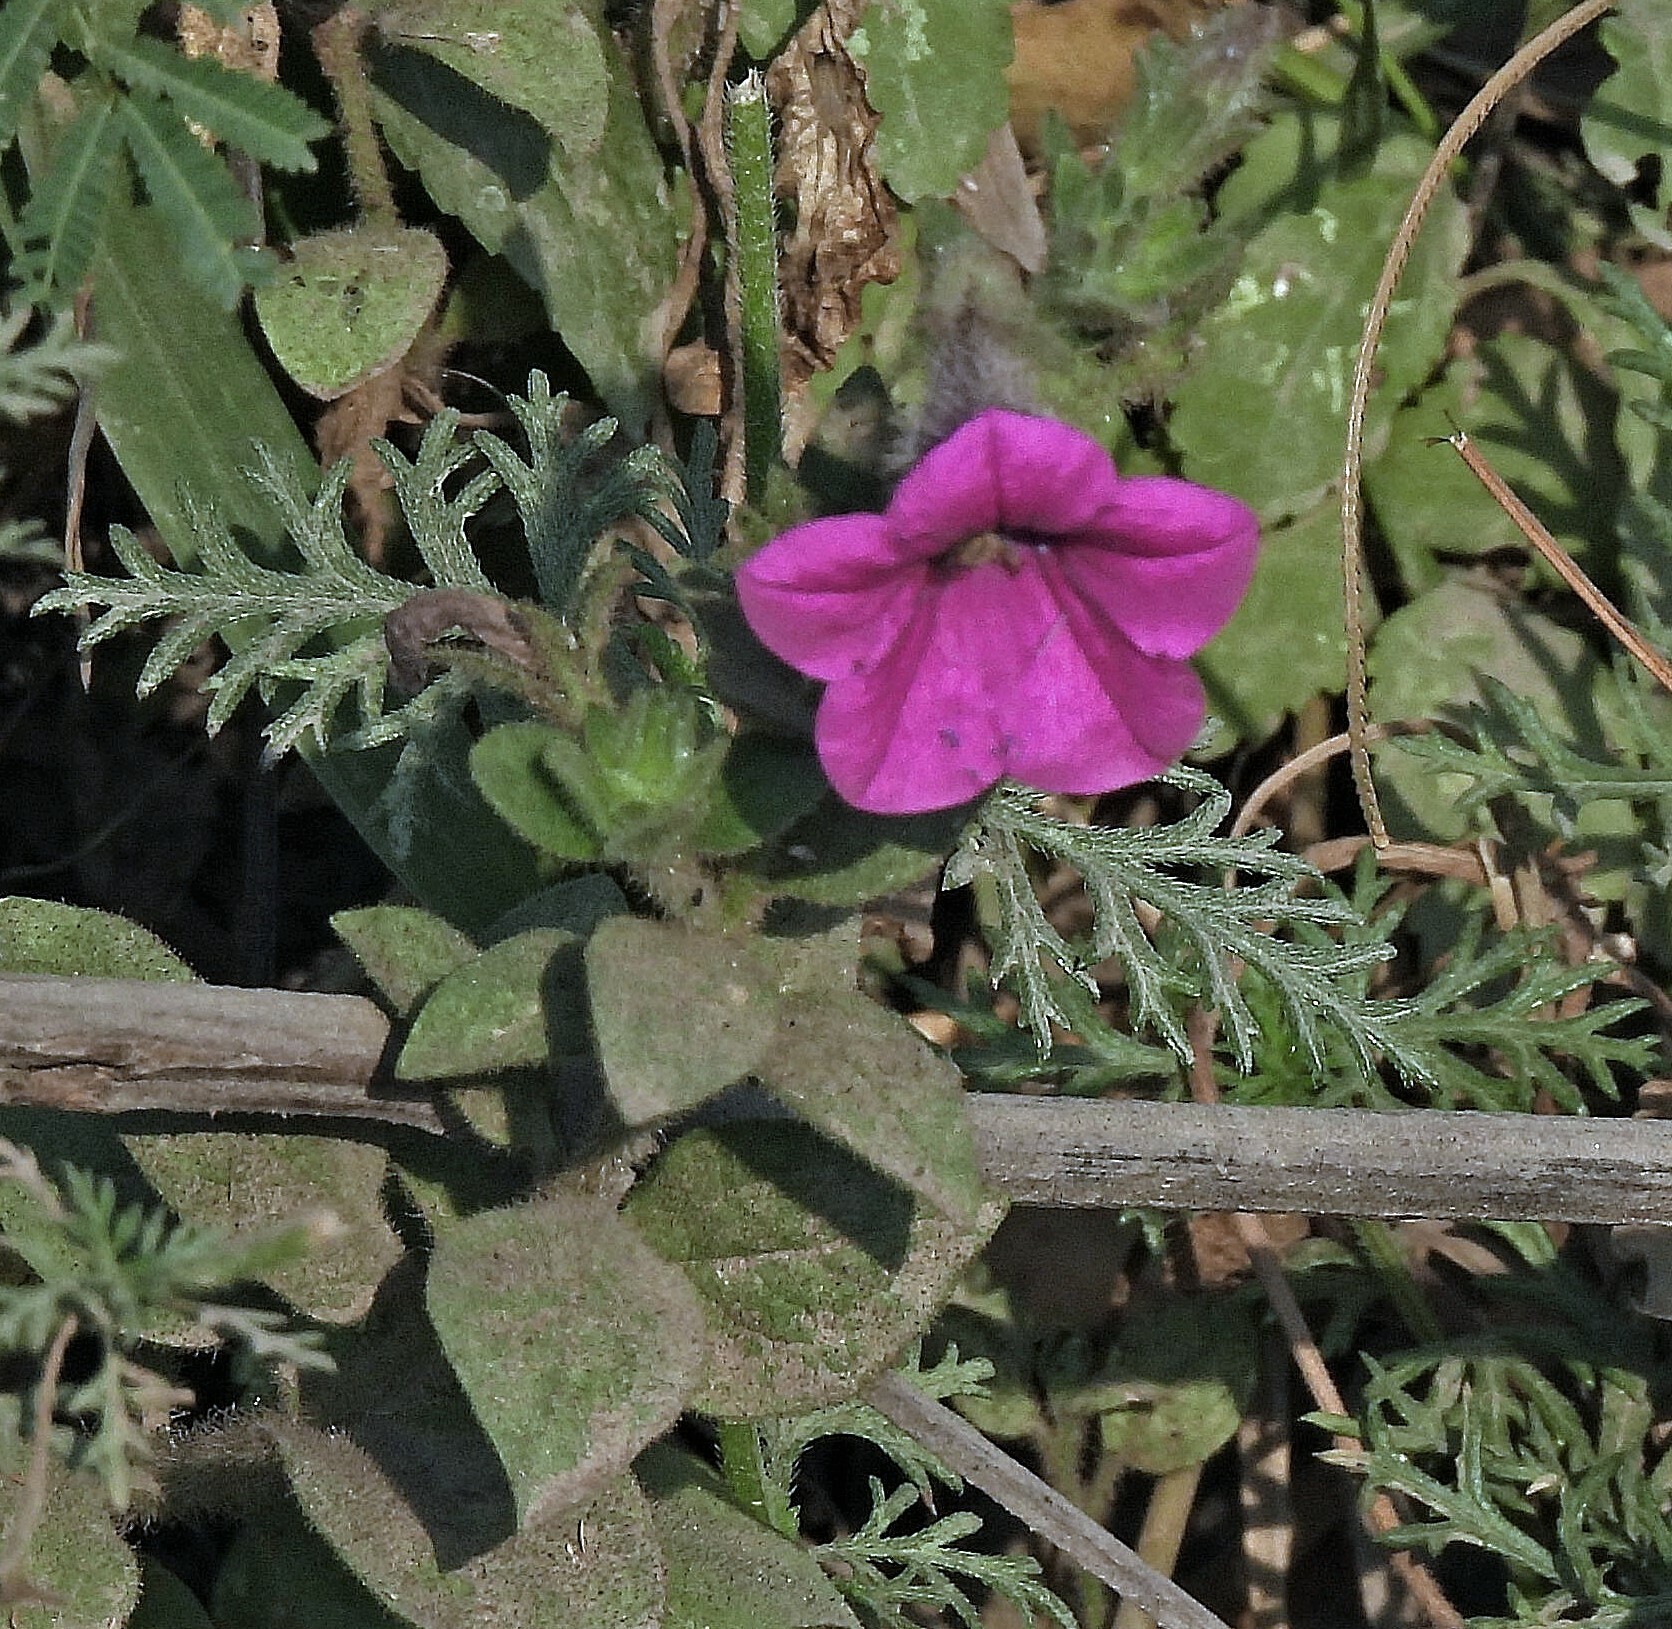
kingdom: Plantae
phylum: Tracheophyta
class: Magnoliopsida
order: Solanales
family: Solanaceae
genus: Petunia
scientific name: Petunia inflata
